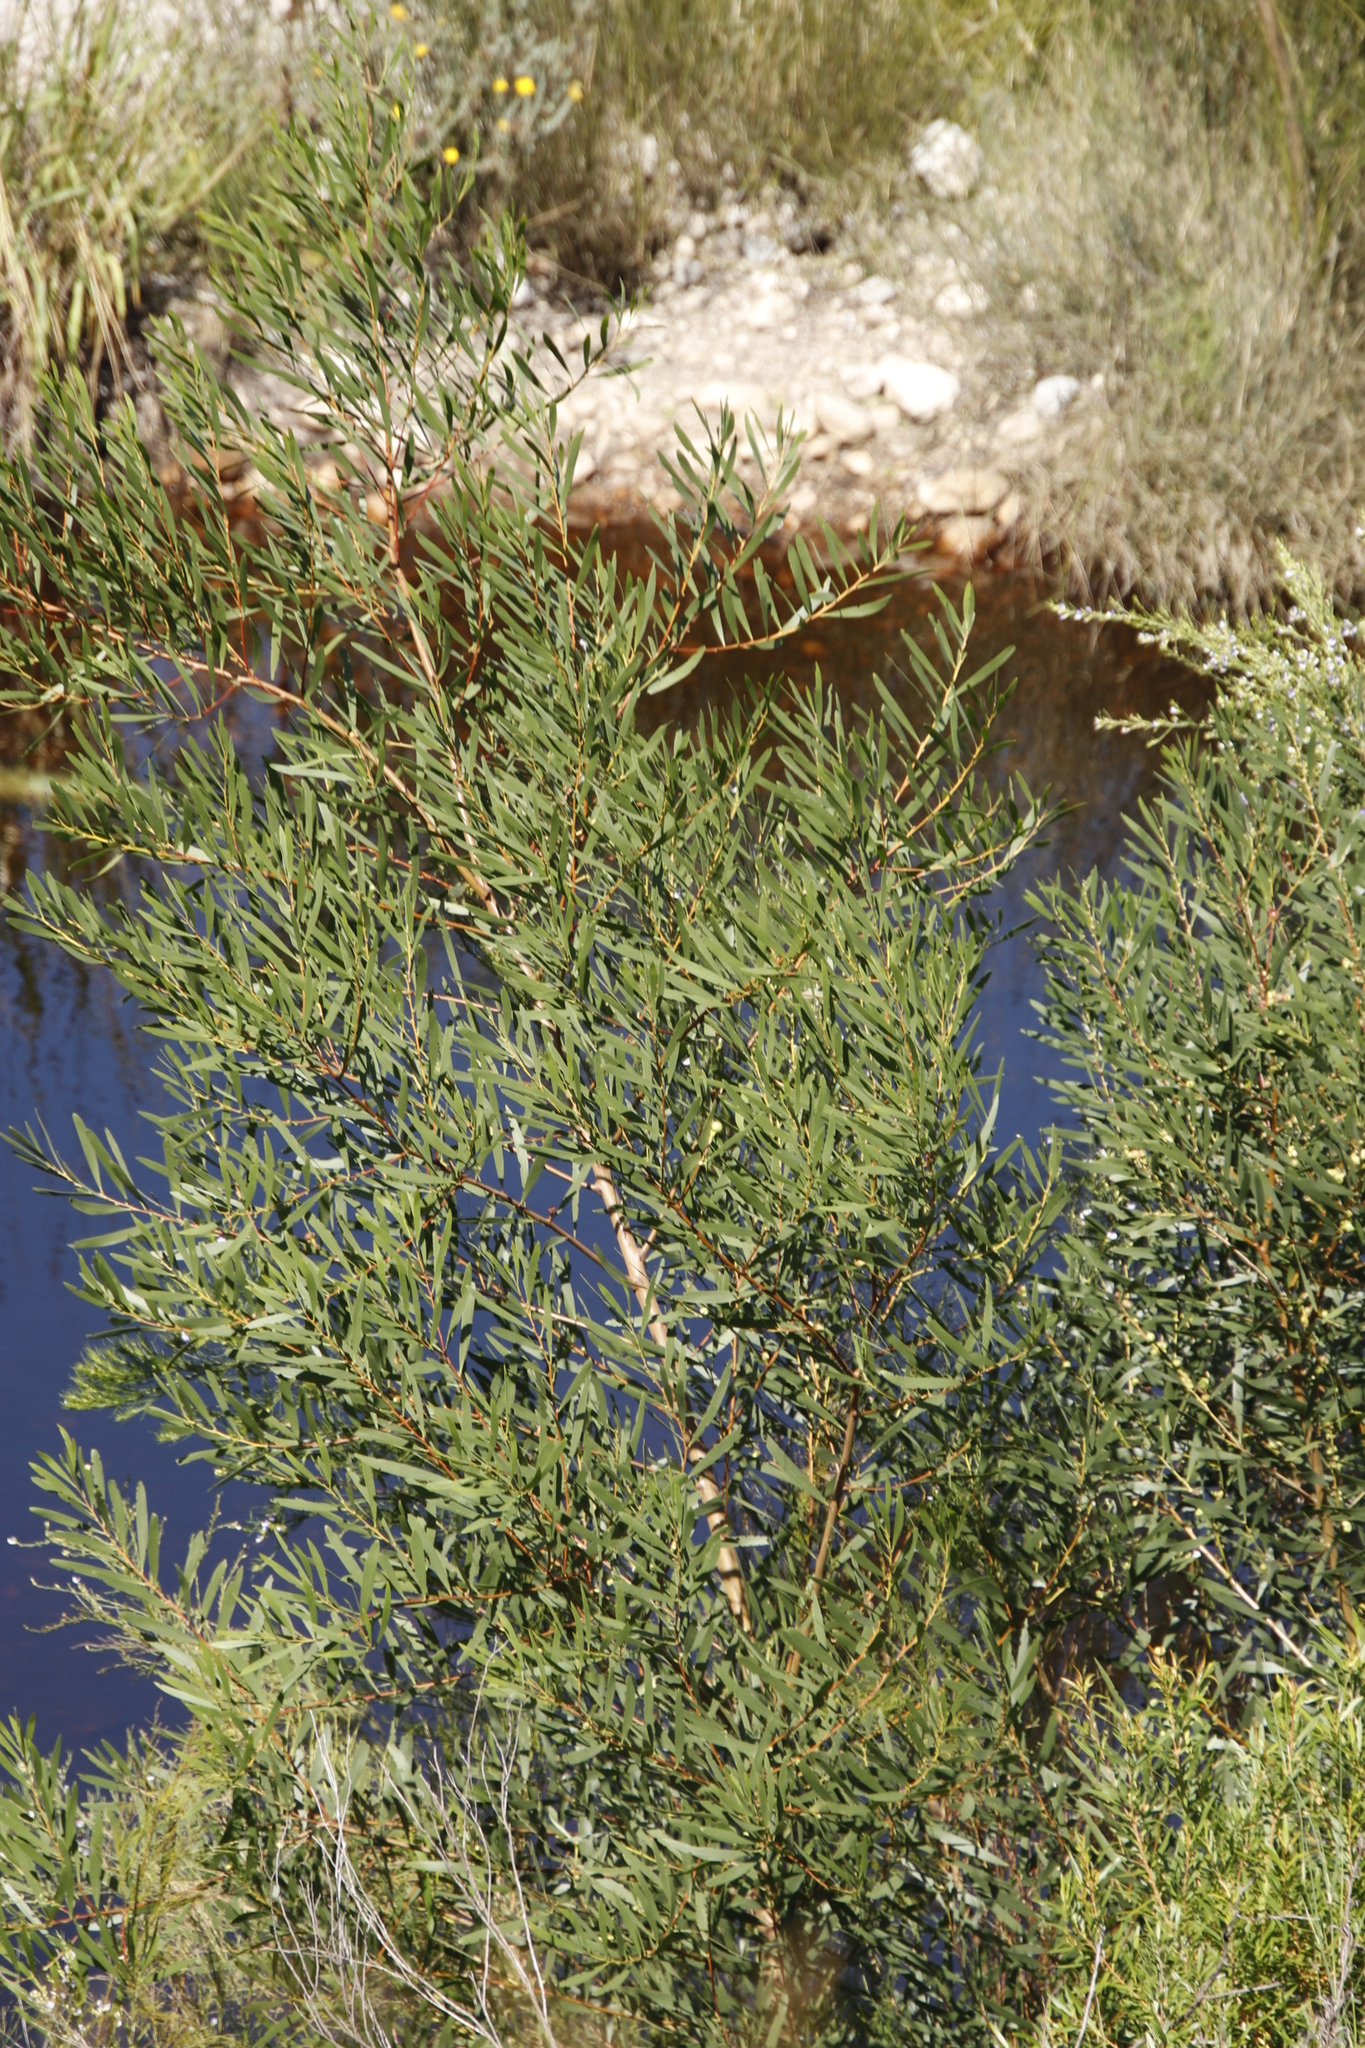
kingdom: Plantae
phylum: Tracheophyta
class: Magnoliopsida
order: Fabales
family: Fabaceae
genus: Acacia
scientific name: Acacia longifolia
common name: Sydney golden wattle
